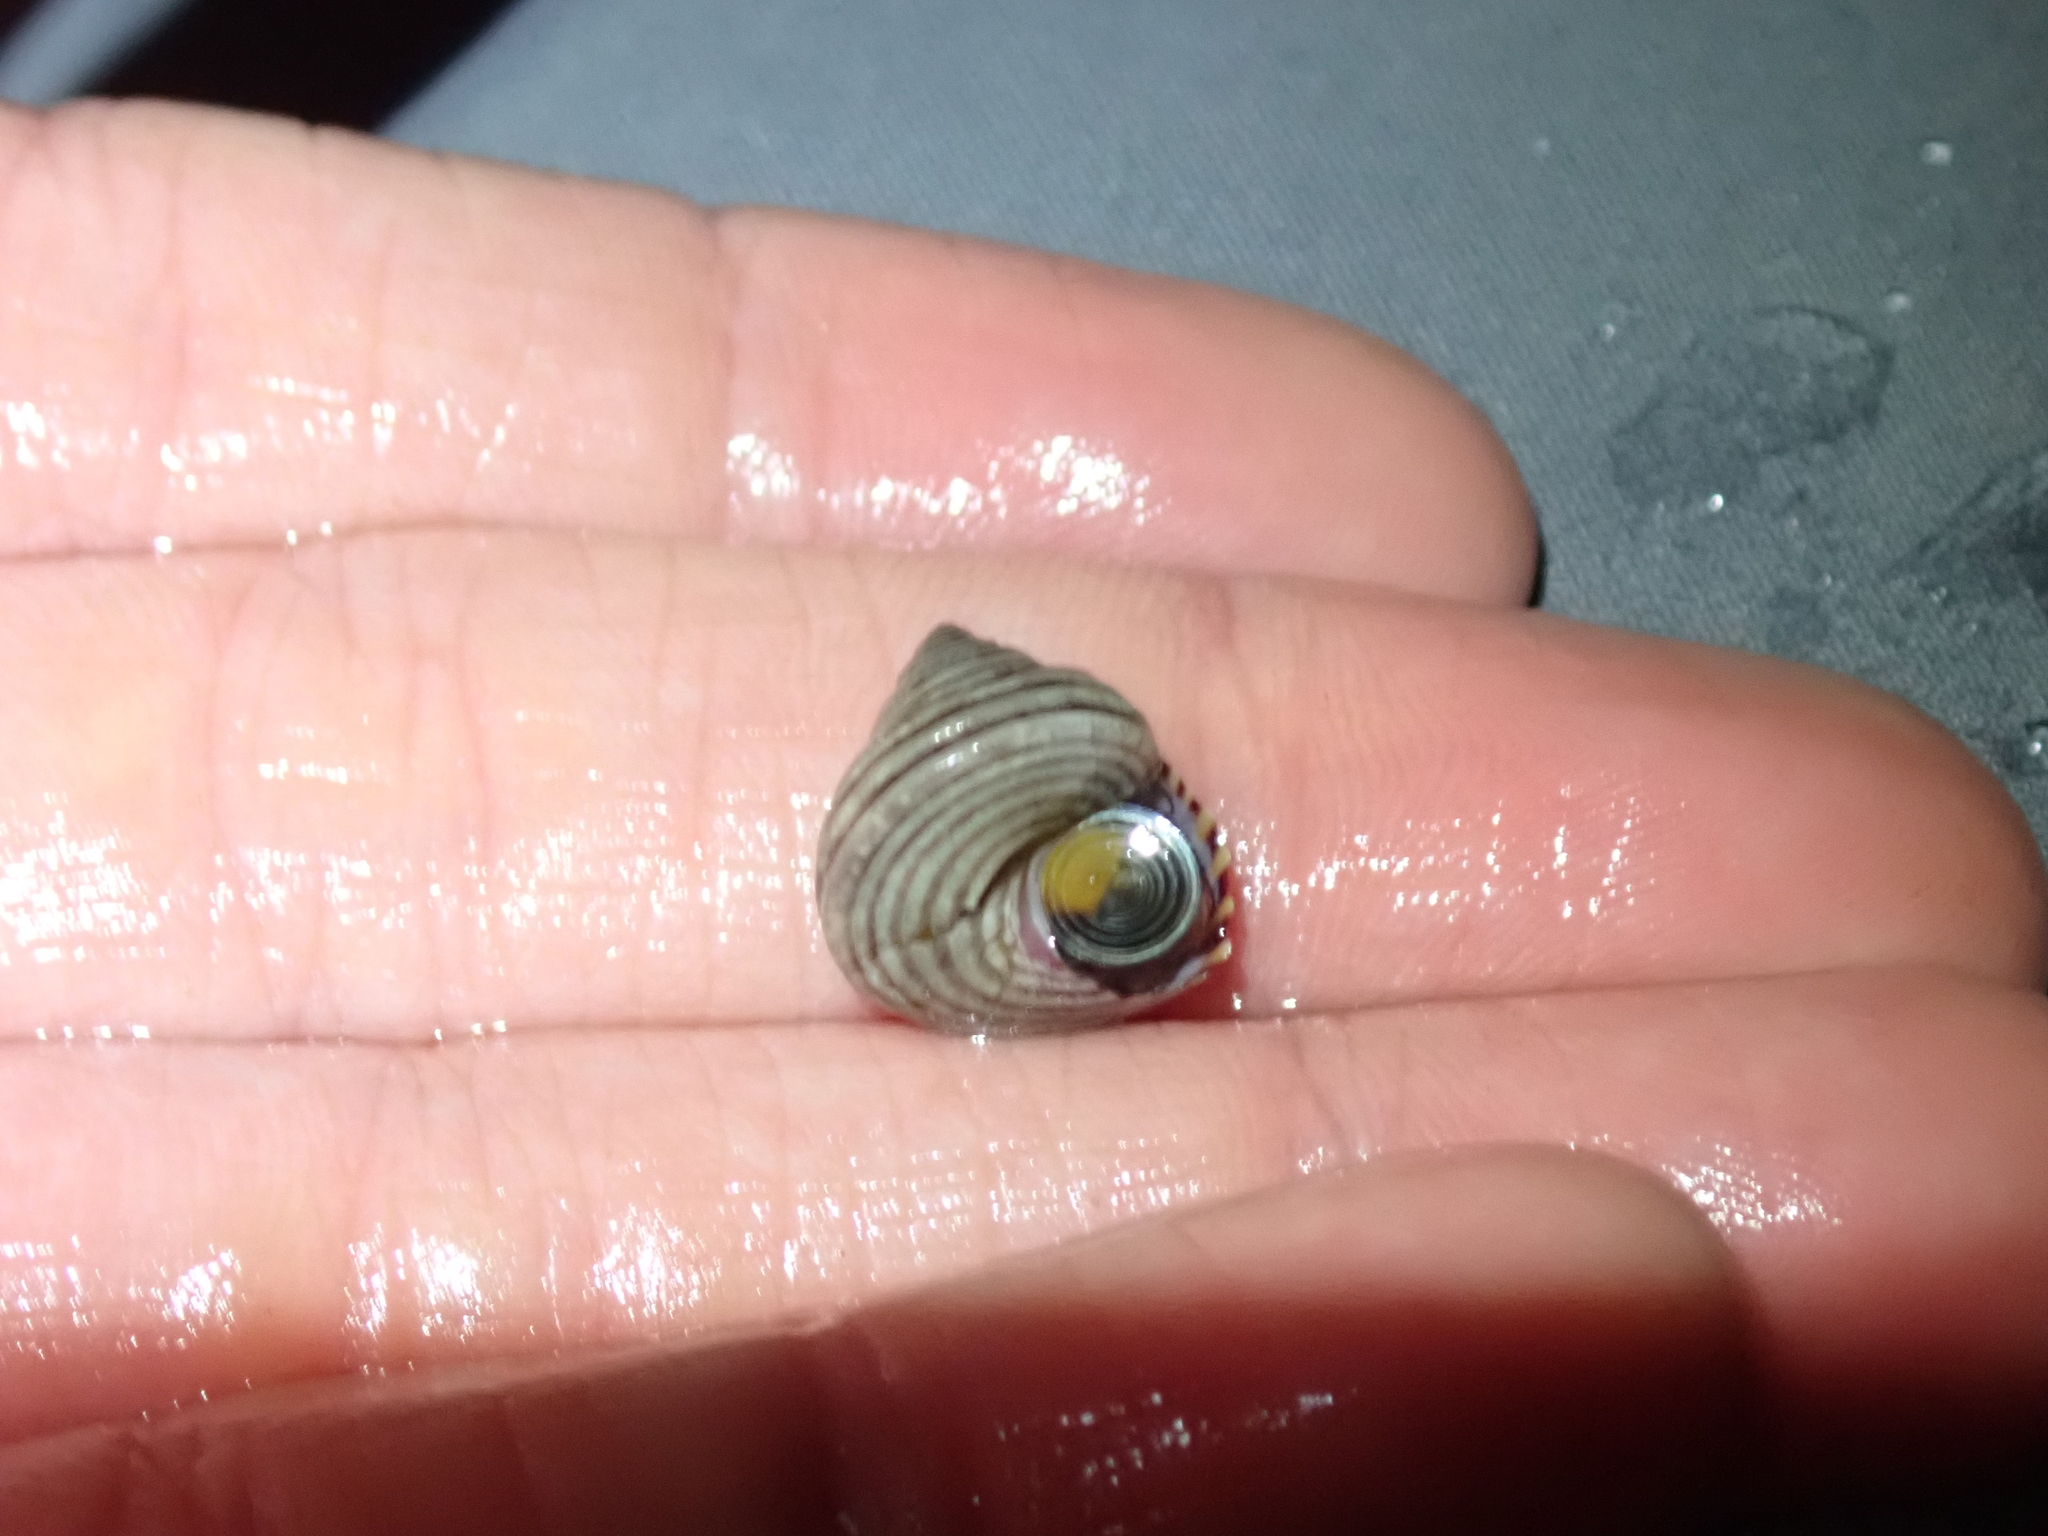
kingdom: Animalia
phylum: Mollusca
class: Gastropoda
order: Trochida
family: Calliostomatidae
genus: Calliostoma
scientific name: Calliostoma ligatum
